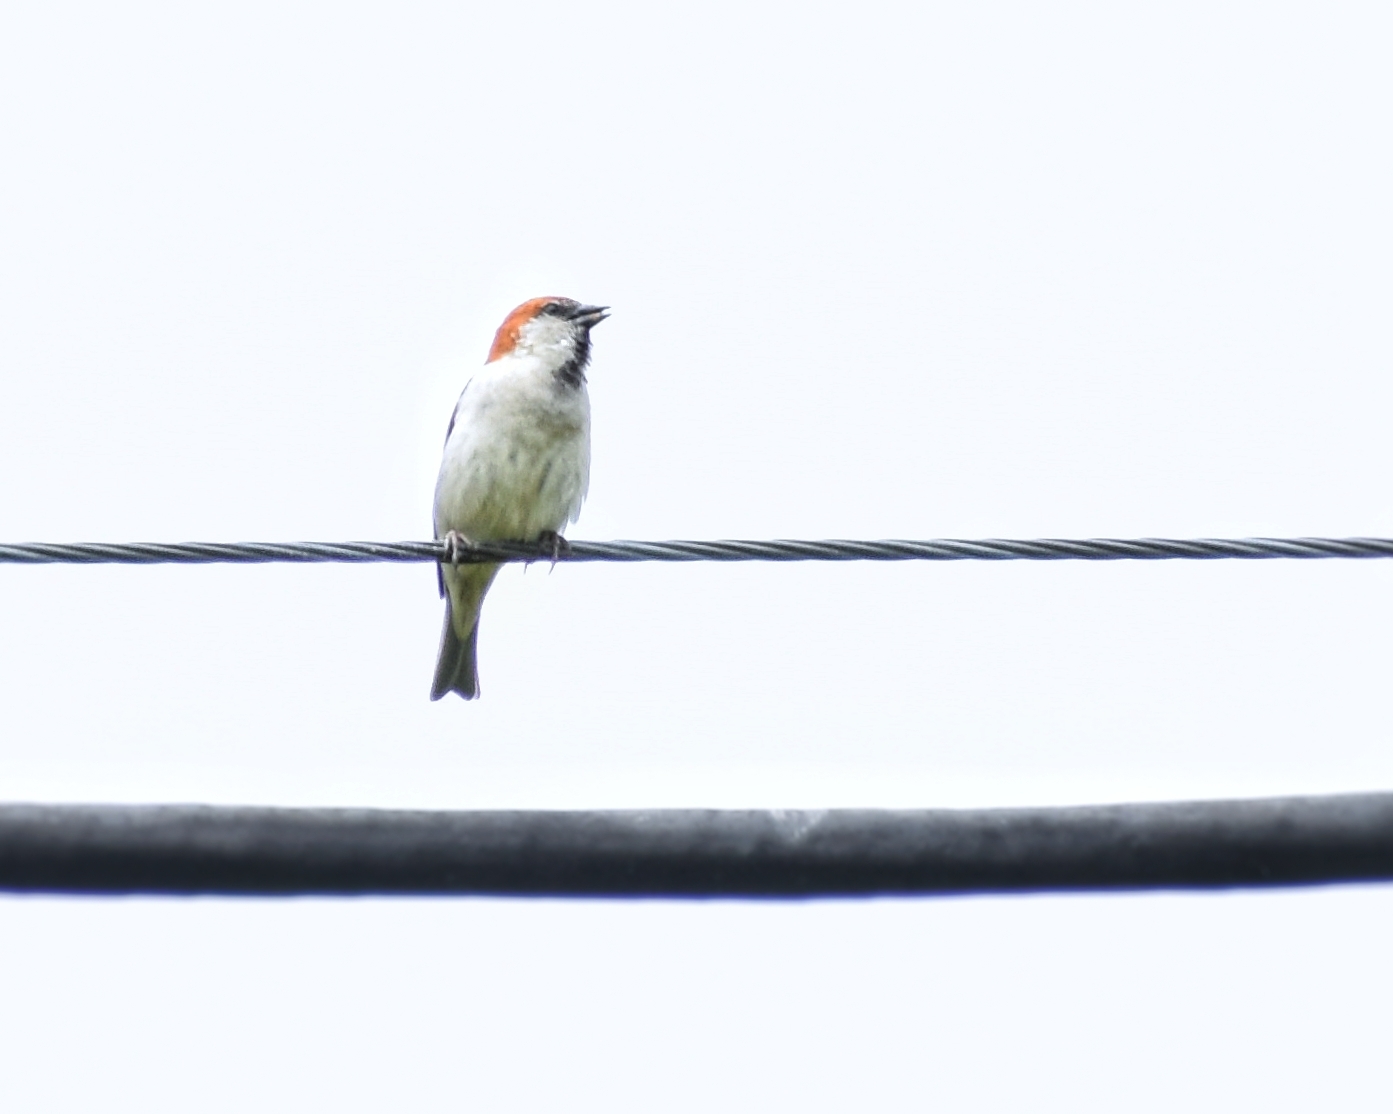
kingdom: Animalia
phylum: Chordata
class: Aves
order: Passeriformes
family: Passeridae
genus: Passer
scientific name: Passer cinnamomeus
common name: Russet sparrow
